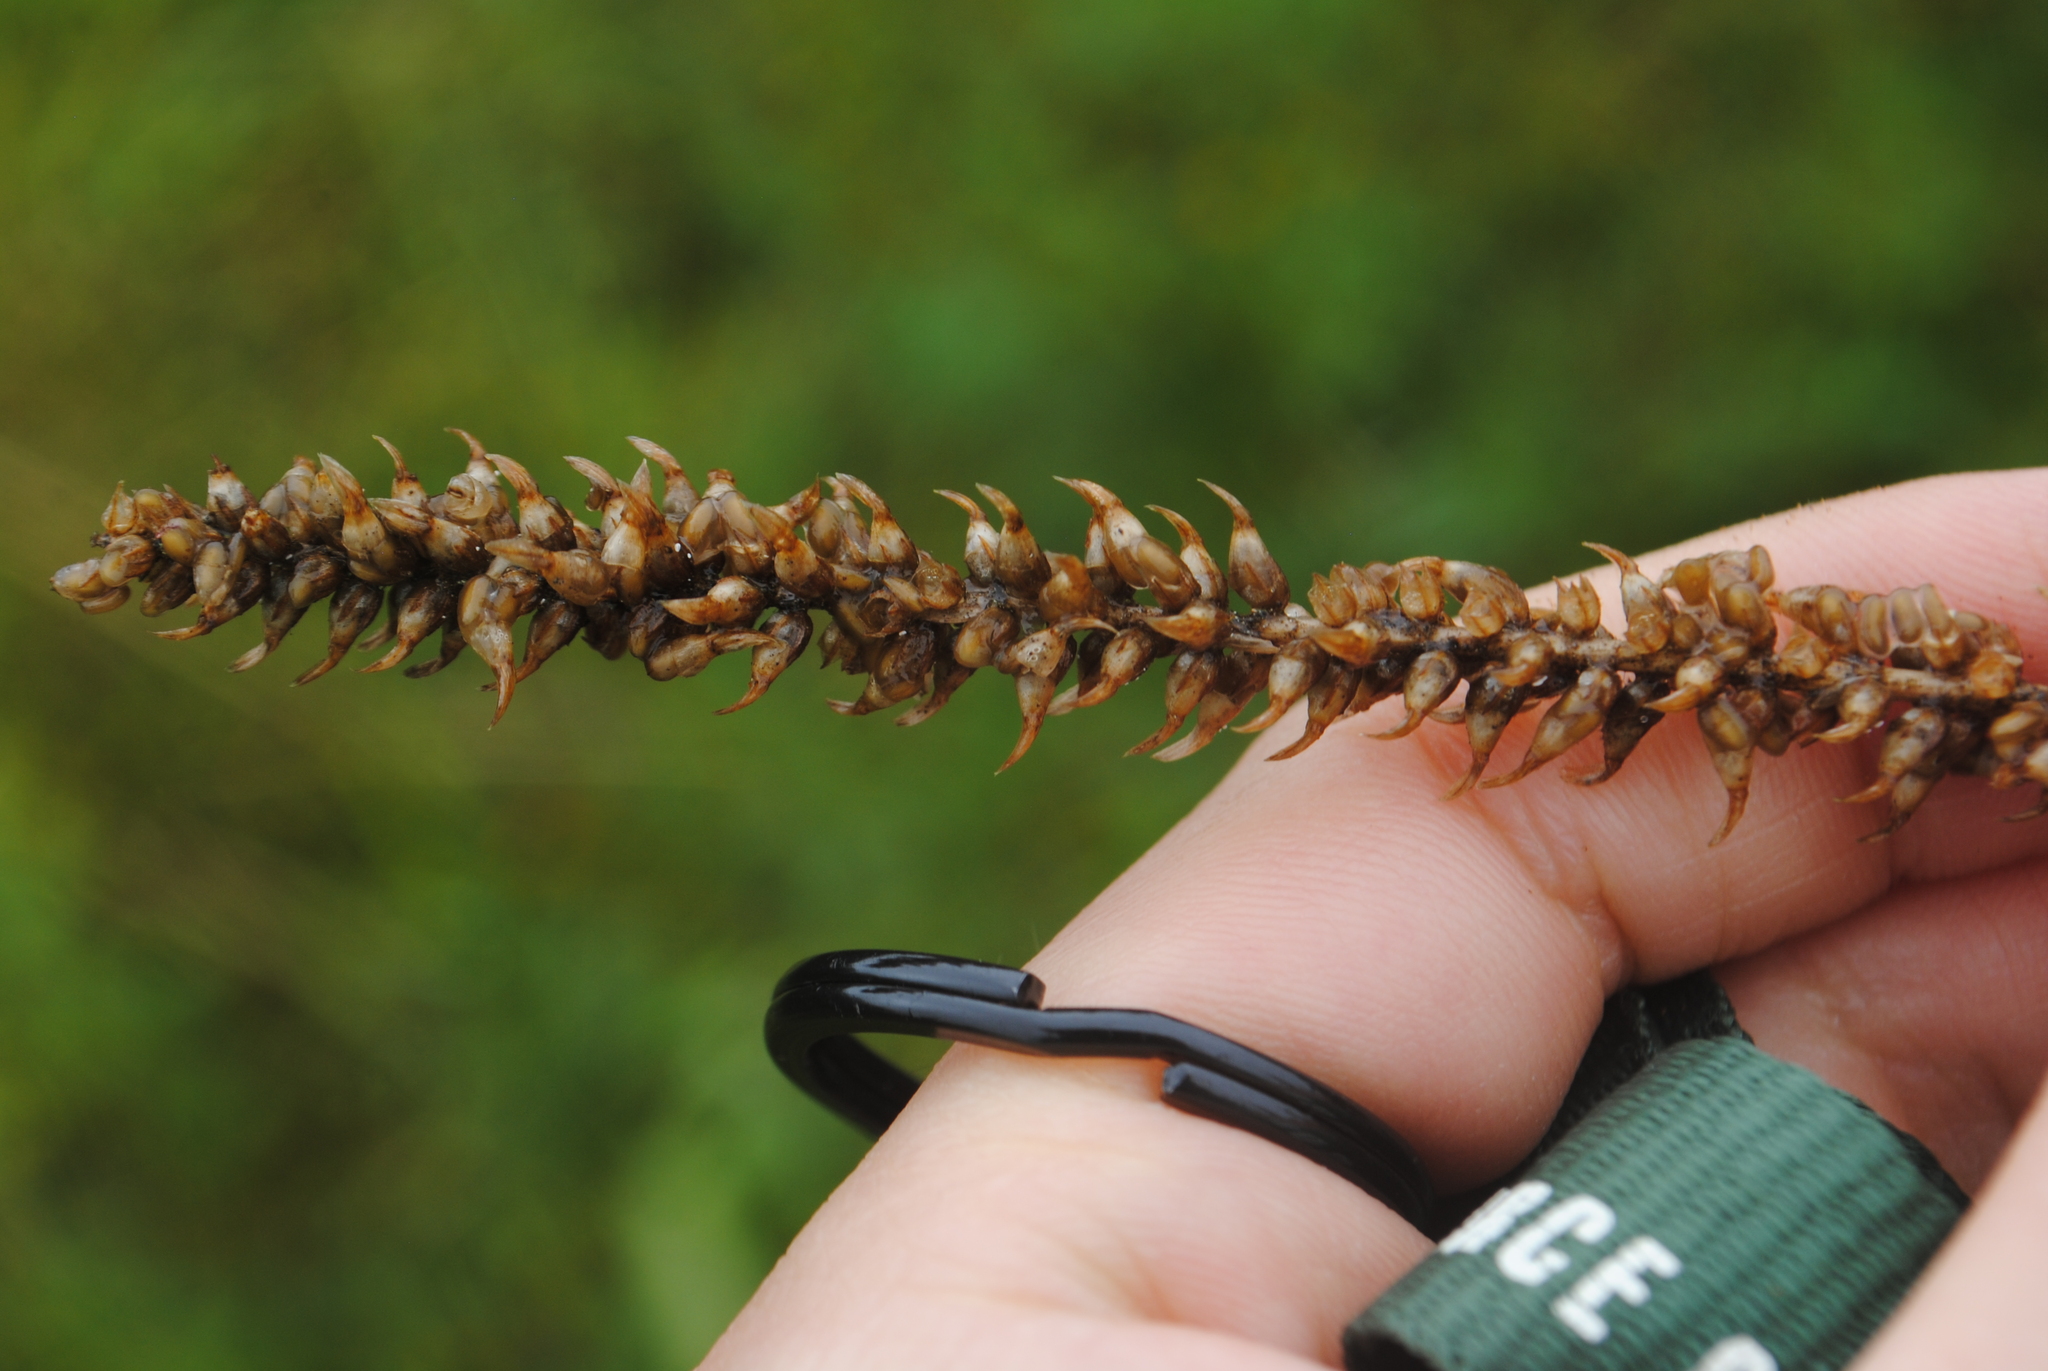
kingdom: Plantae
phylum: Tracheophyta
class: Magnoliopsida
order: Lamiales
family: Plantaginaceae
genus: Plantago
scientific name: Plantago australis
